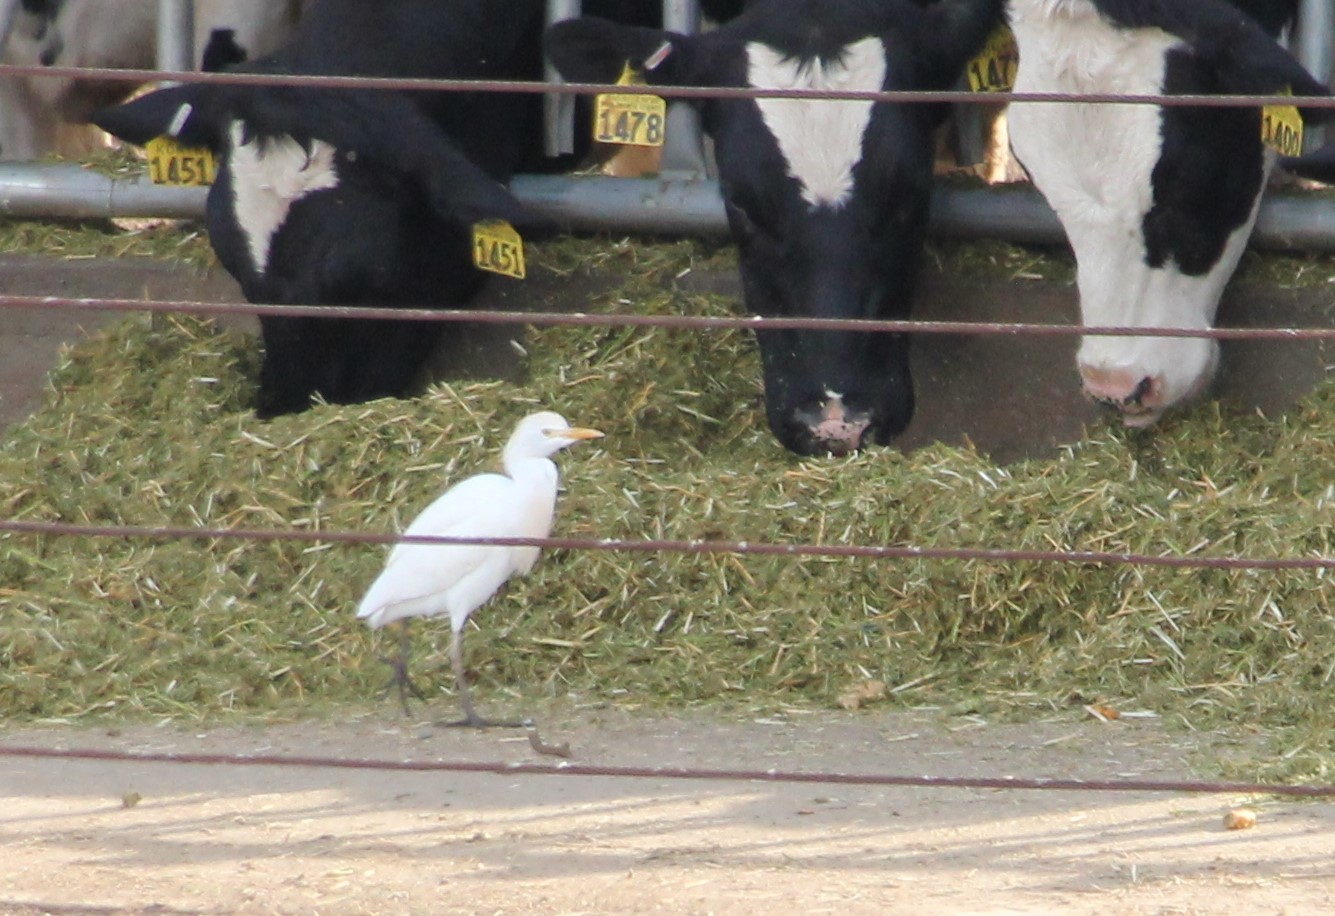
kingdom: Animalia
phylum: Chordata
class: Aves
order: Pelecaniformes
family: Ardeidae
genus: Bubulcus
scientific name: Bubulcus ibis
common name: Cattle egret
